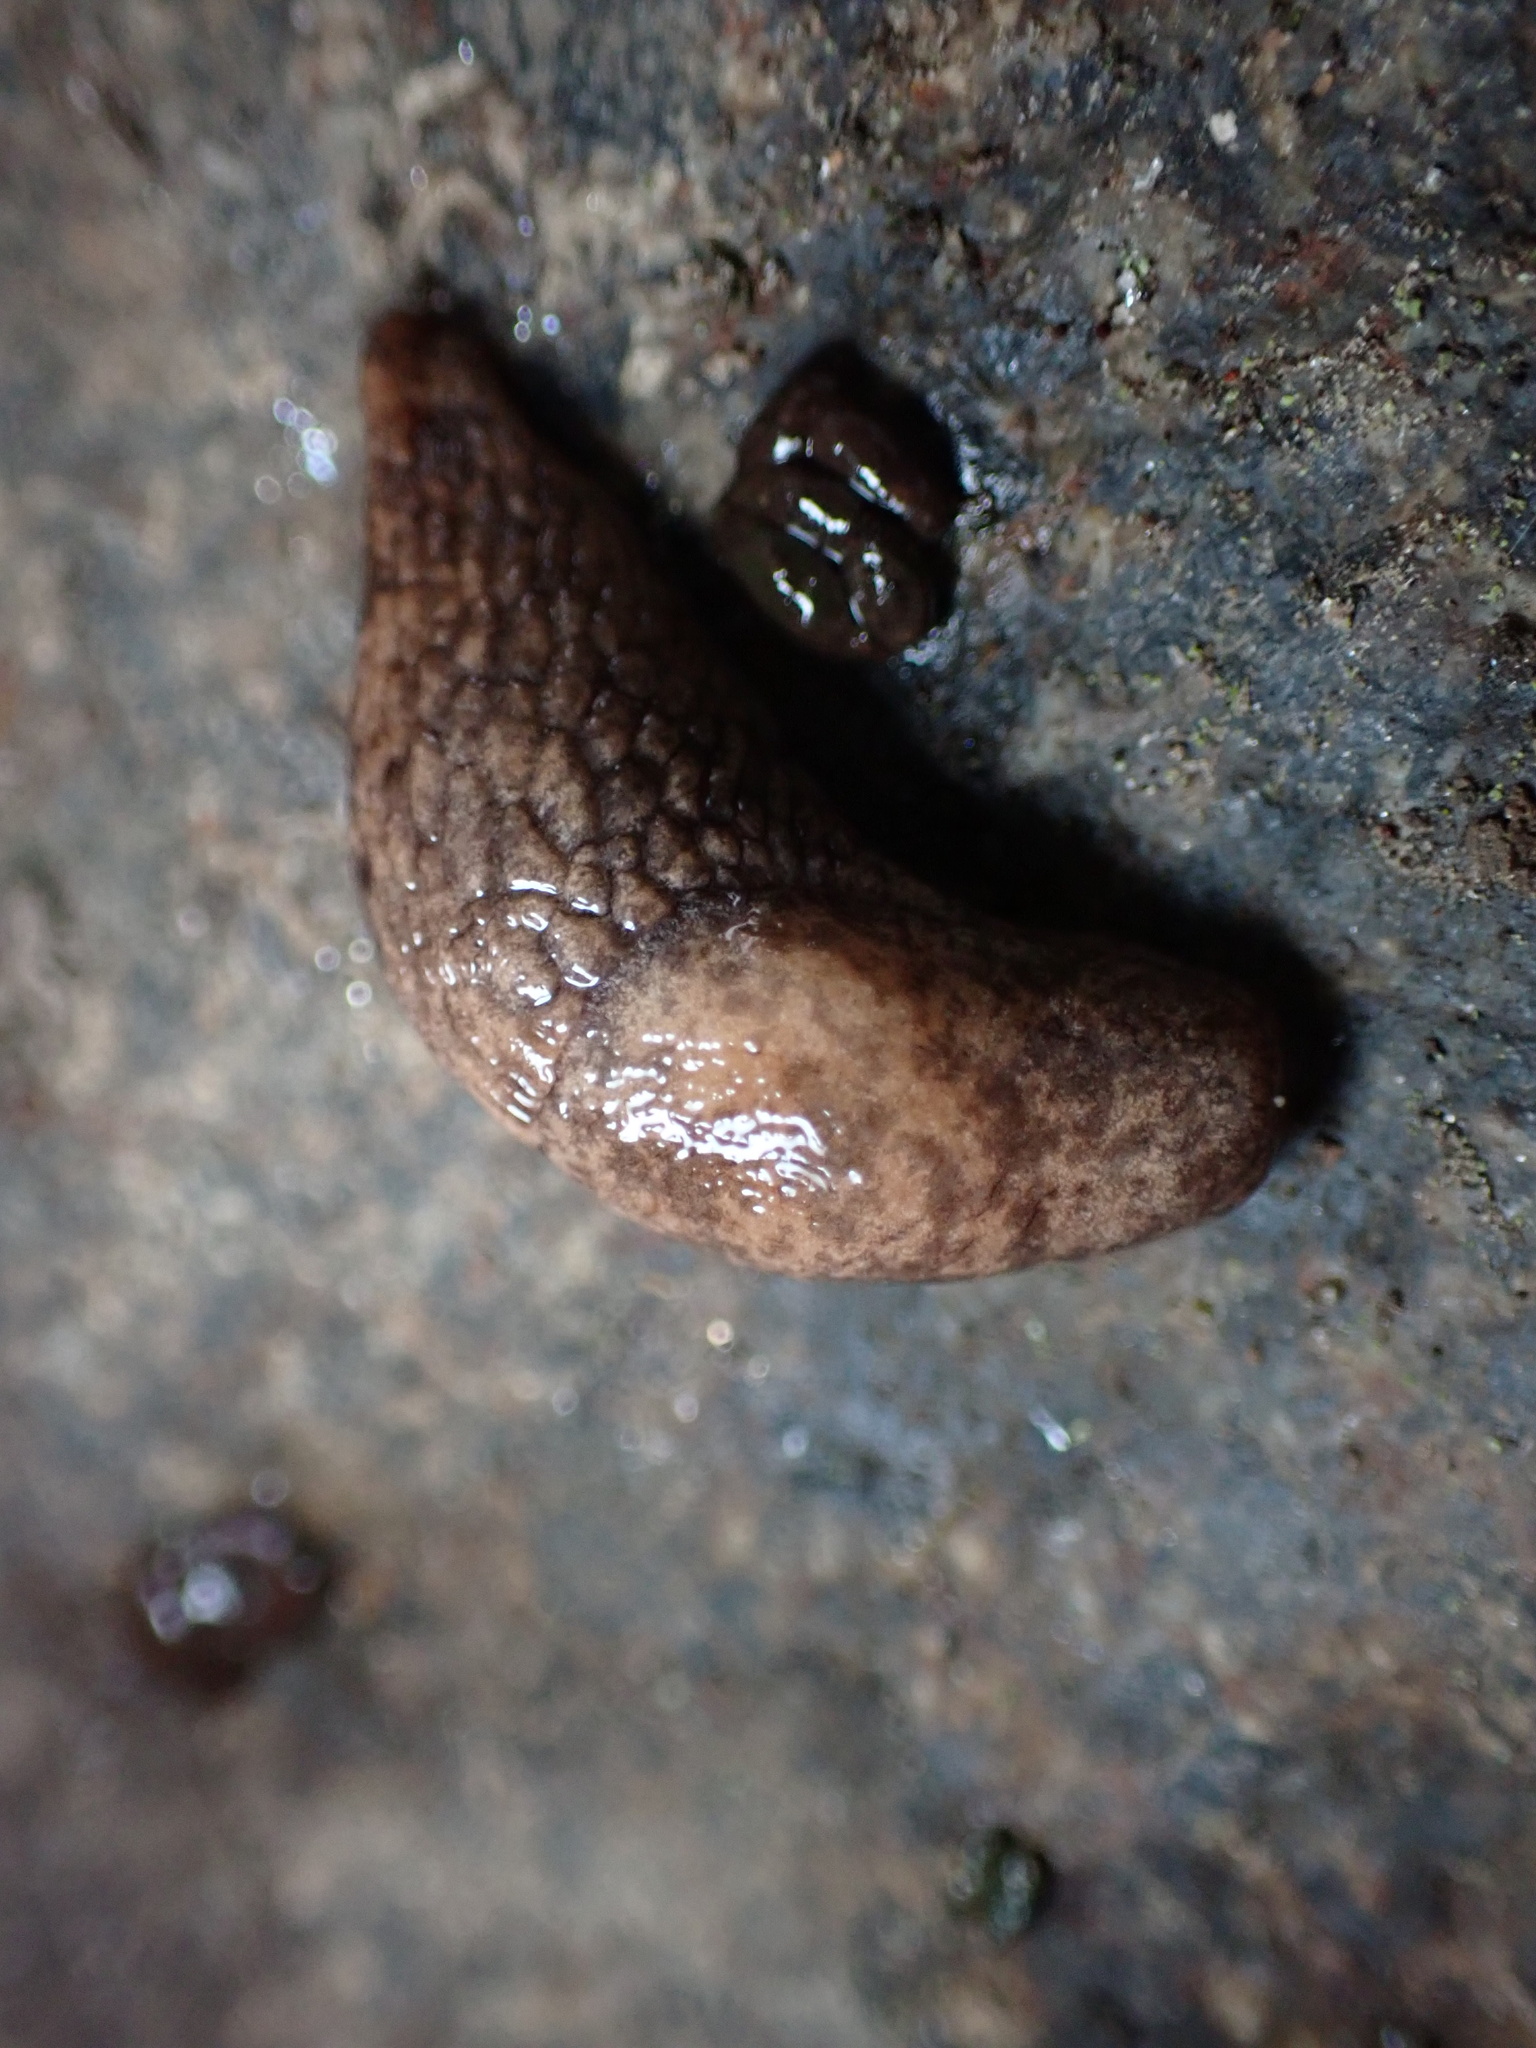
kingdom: Animalia
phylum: Mollusca
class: Gastropoda
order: Stylommatophora
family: Agriolimacidae
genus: Deroceras
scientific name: Deroceras reticulatum
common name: Gray field slug
